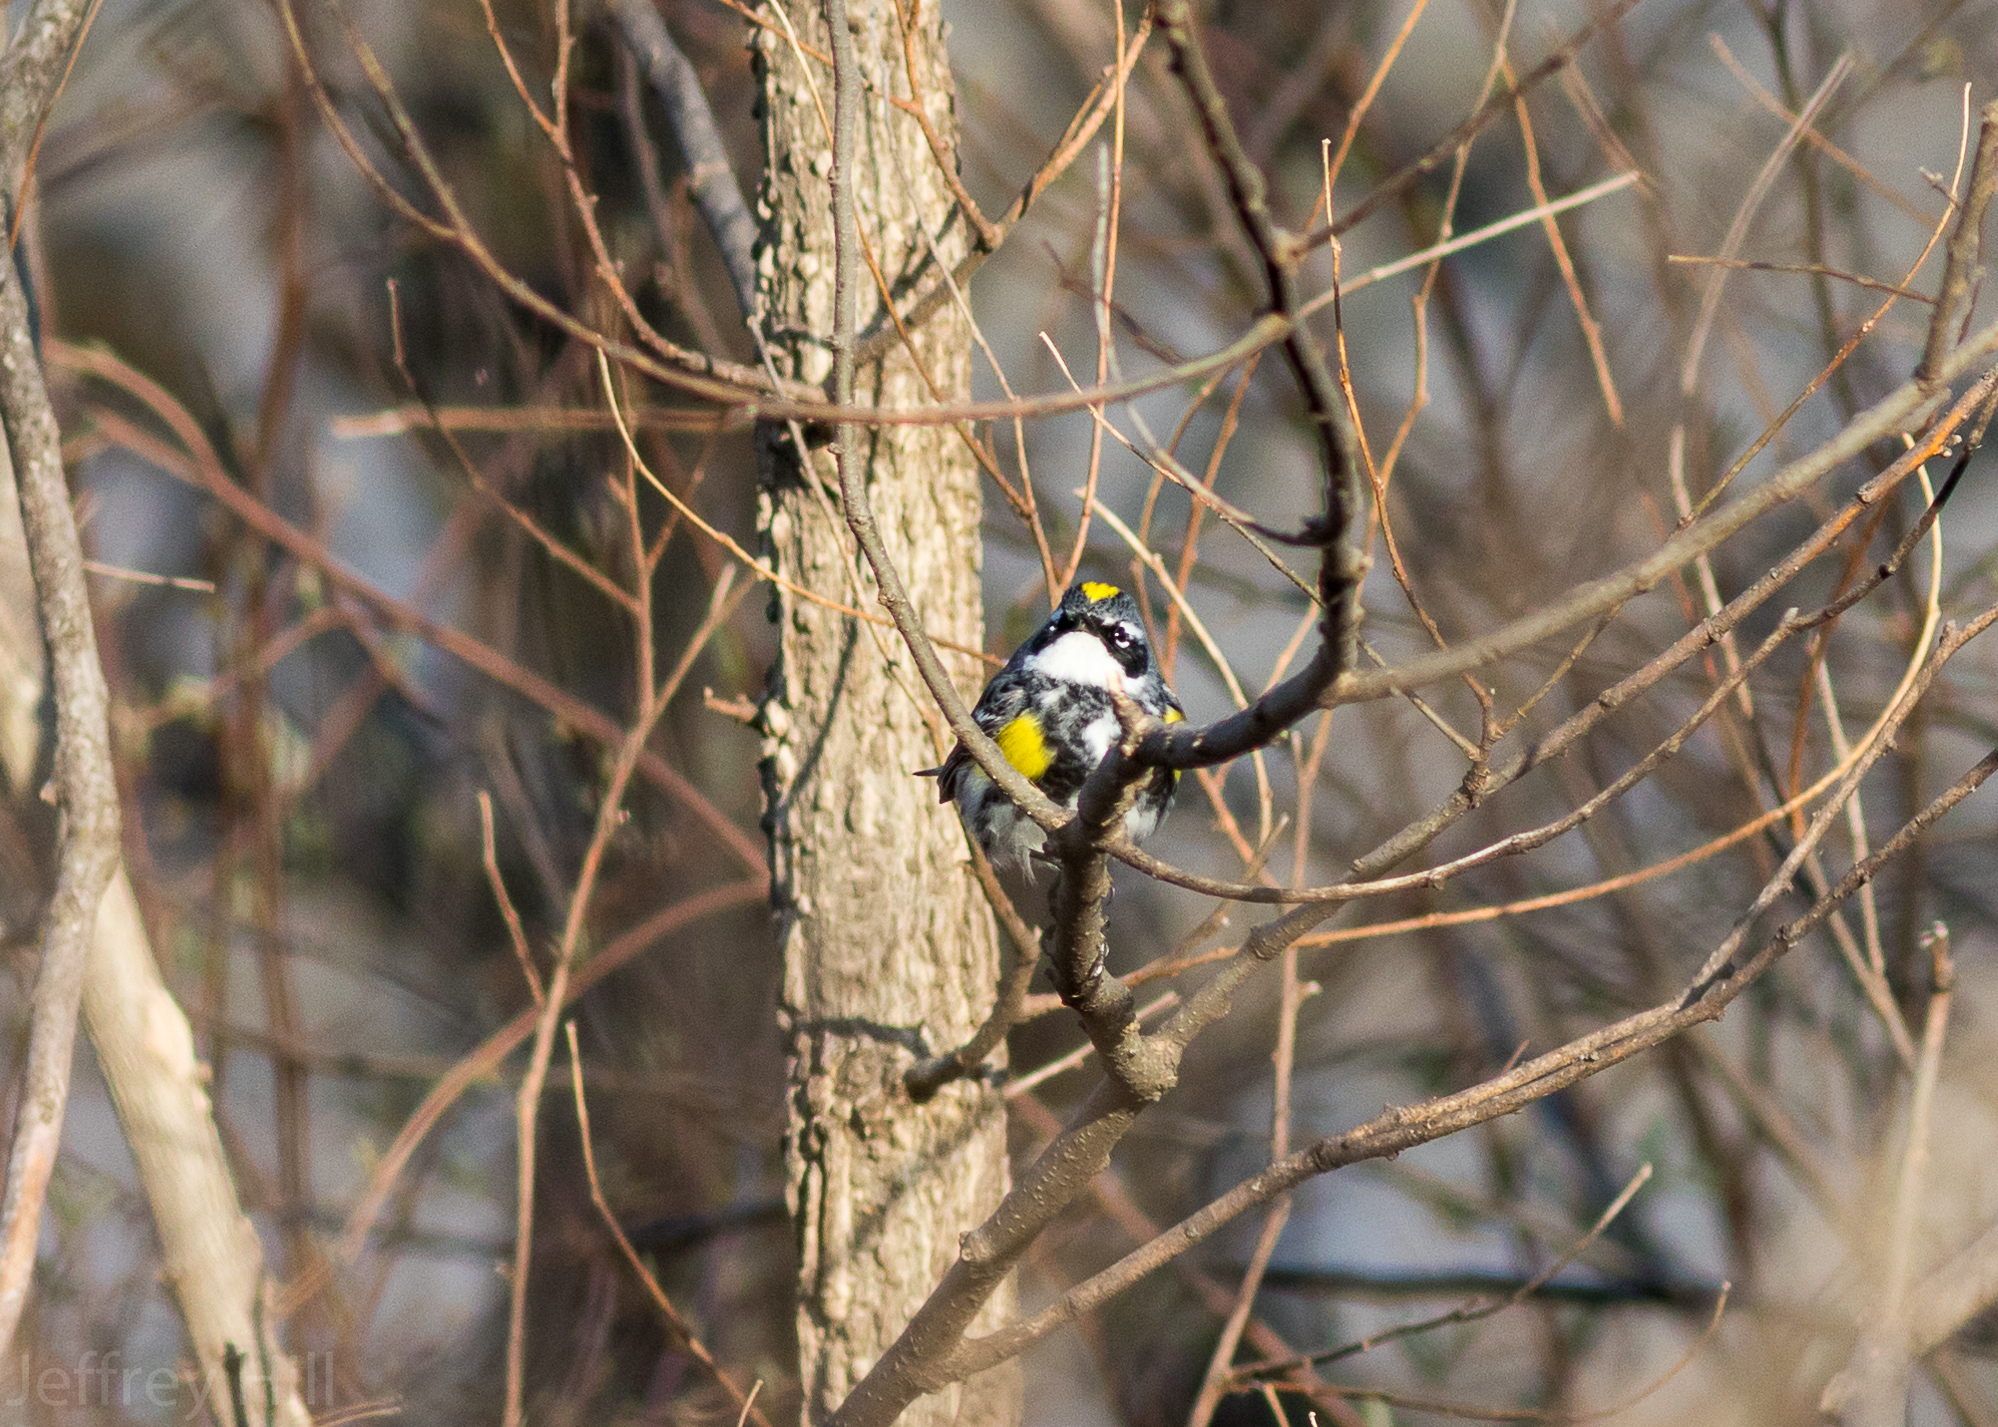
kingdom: Animalia
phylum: Chordata
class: Aves
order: Passeriformes
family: Parulidae
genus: Setophaga
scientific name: Setophaga coronata
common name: Myrtle warbler
